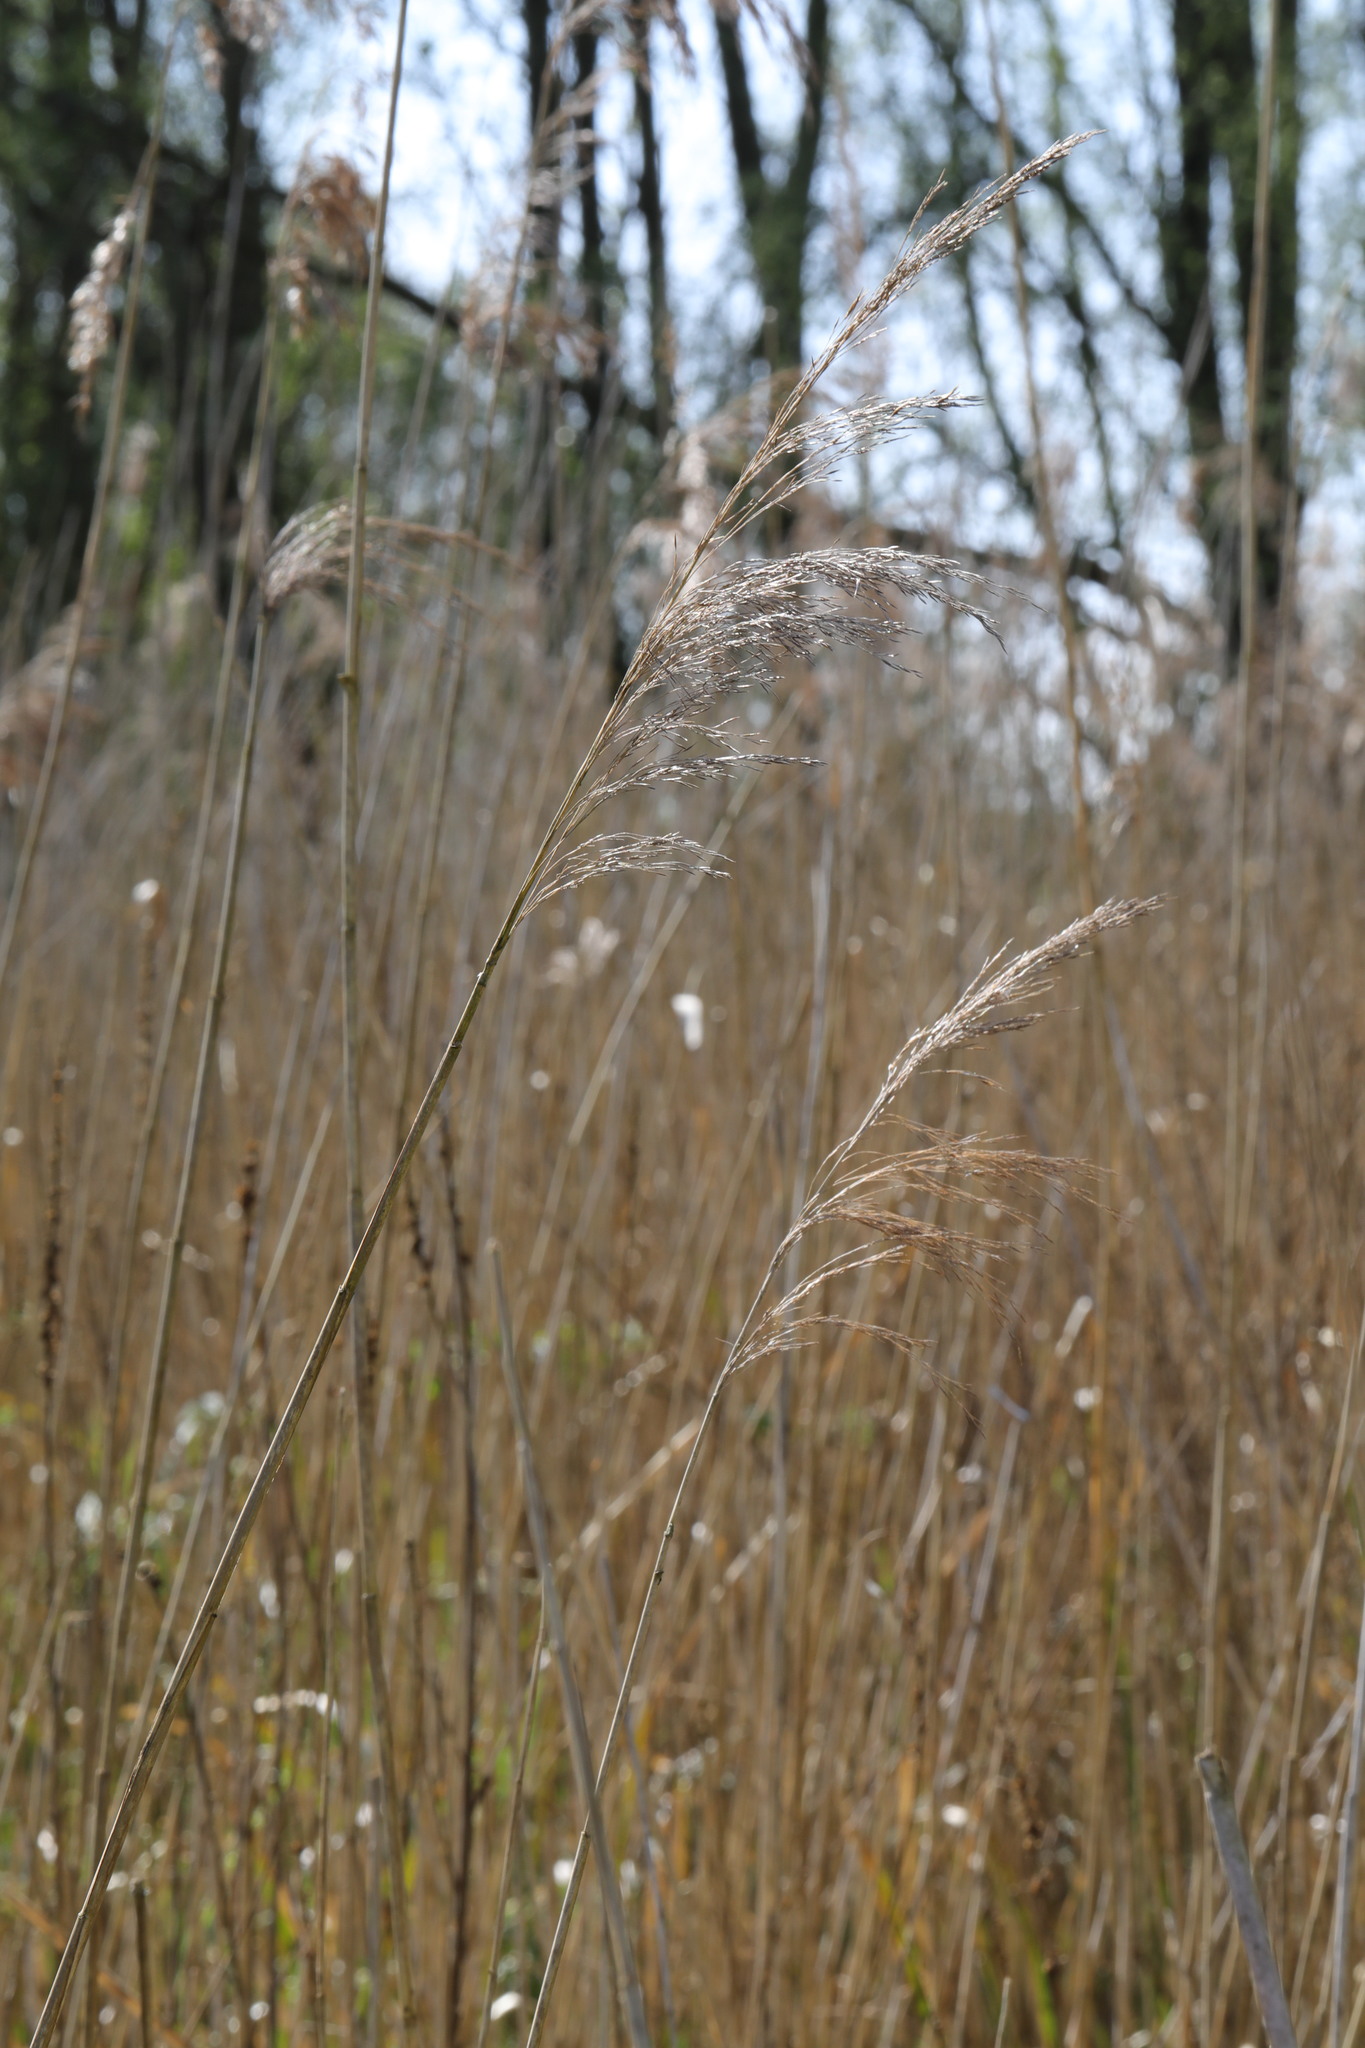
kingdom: Plantae
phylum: Tracheophyta
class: Liliopsida
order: Poales
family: Poaceae
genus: Phragmites
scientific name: Phragmites australis
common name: Common reed
